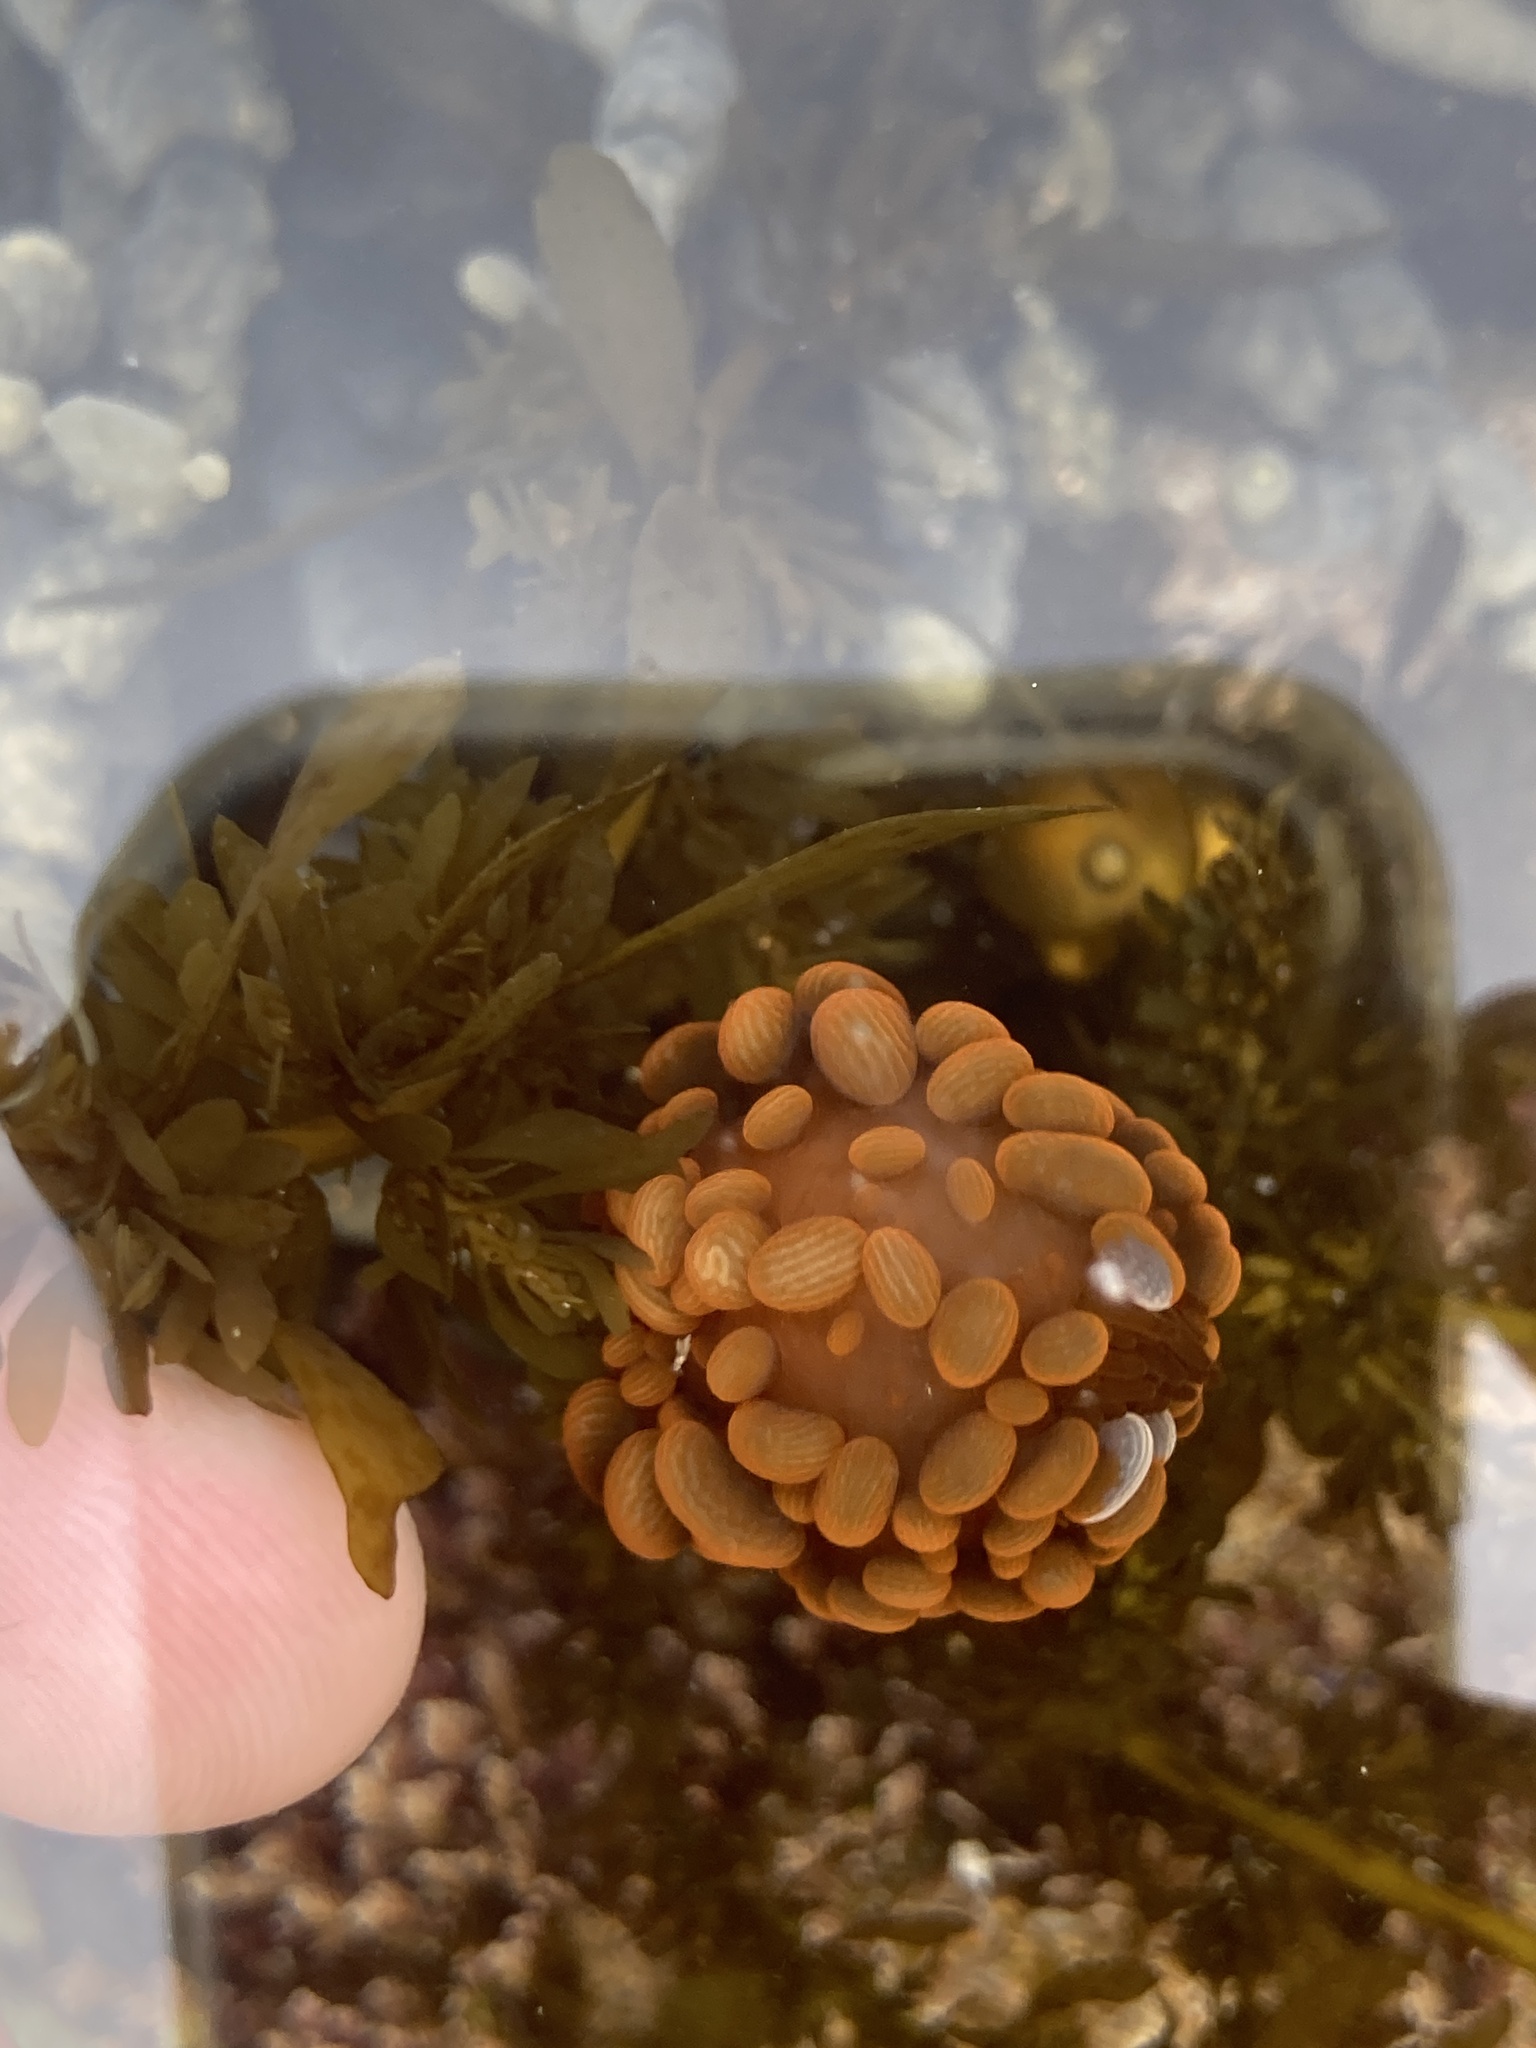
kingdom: Animalia
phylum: Cnidaria
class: Anthozoa
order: Actiniaria
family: Actiniidae
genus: Phlyctenactis
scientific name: Phlyctenactis tuberculosa
